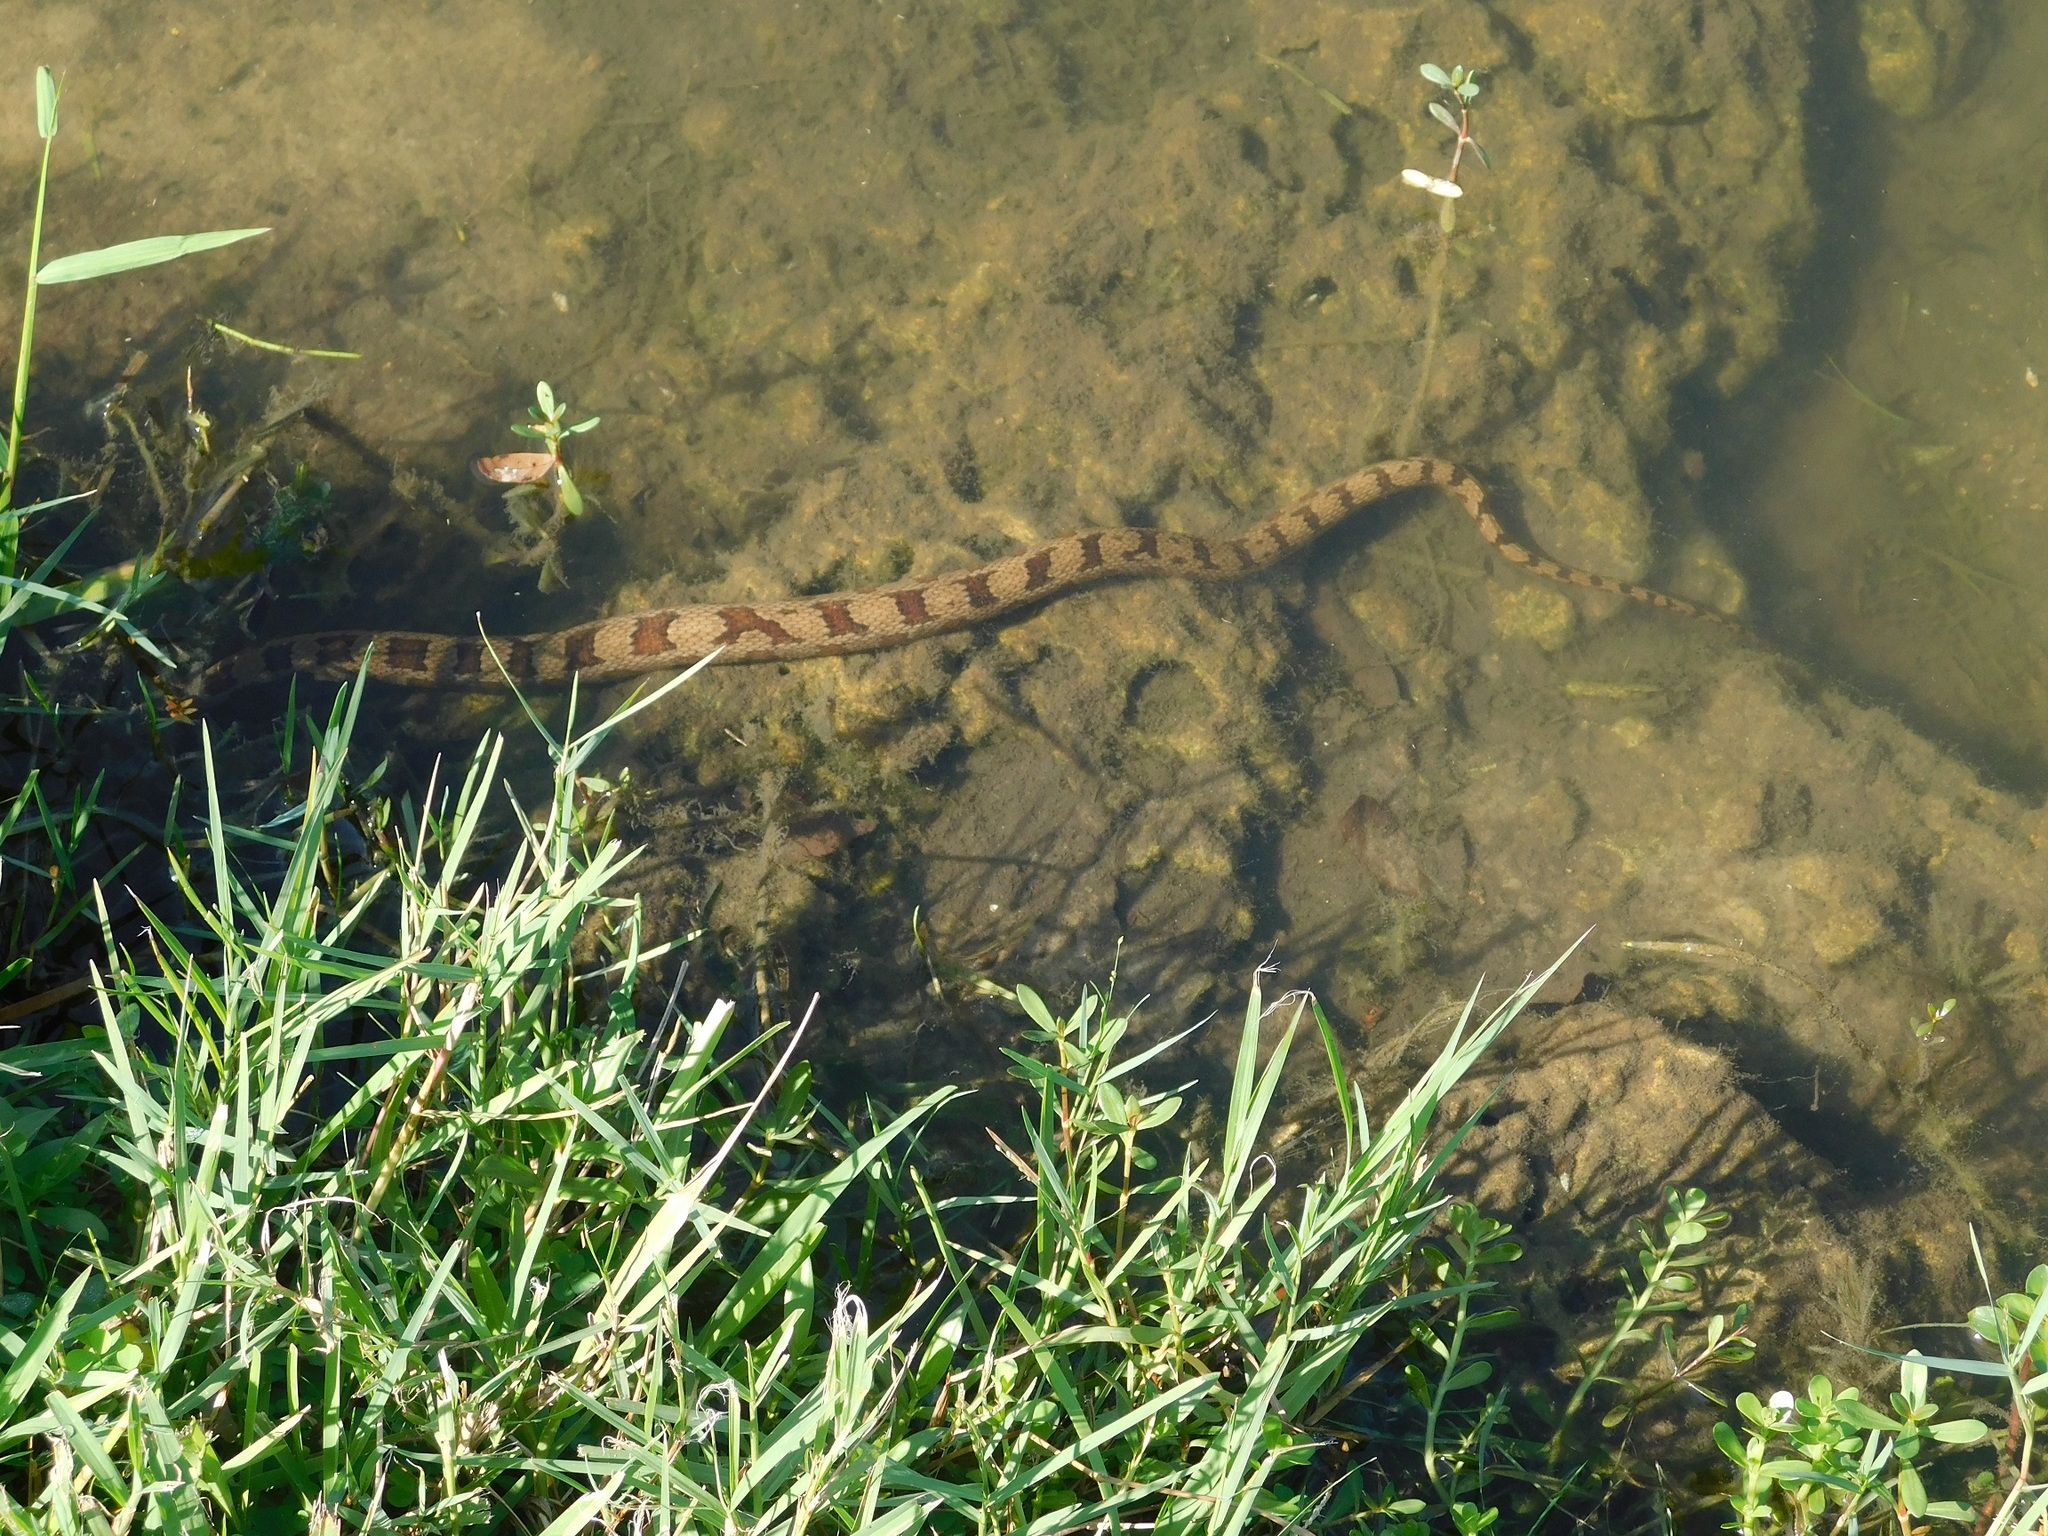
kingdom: Animalia
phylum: Chordata
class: Squamata
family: Colubridae
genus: Nerodia
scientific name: Nerodia taxispilota
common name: Brown water snake
